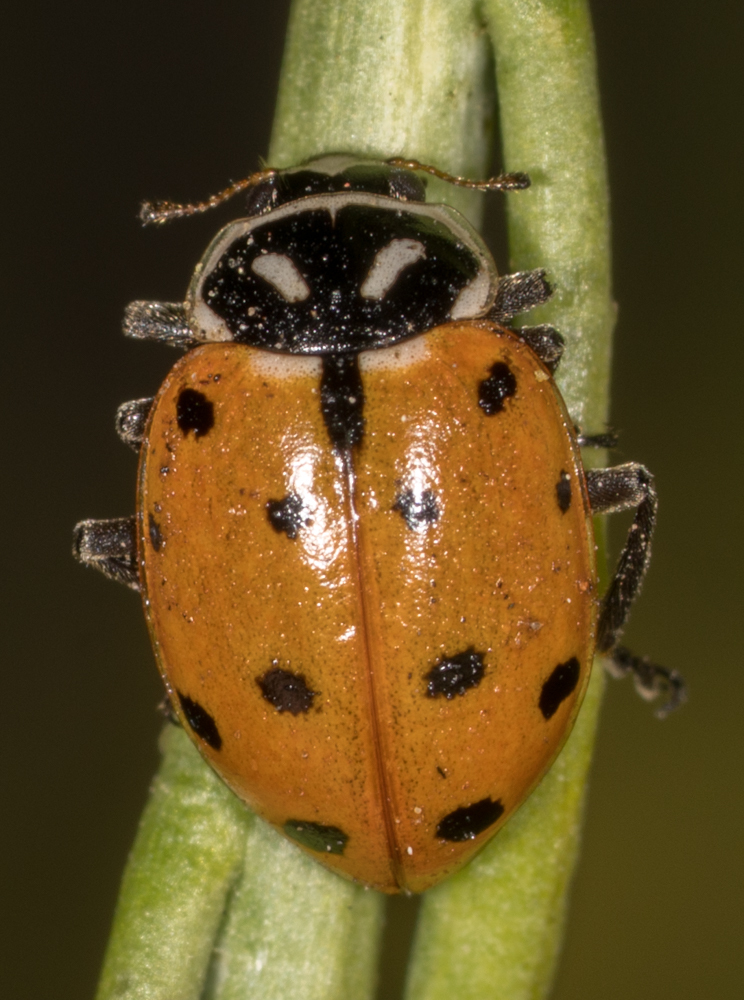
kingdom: Animalia
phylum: Arthropoda
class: Insecta
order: Coleoptera
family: Coccinellidae
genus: Hippodamia
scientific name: Hippodamia convergens
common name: Convergent lady beetle
